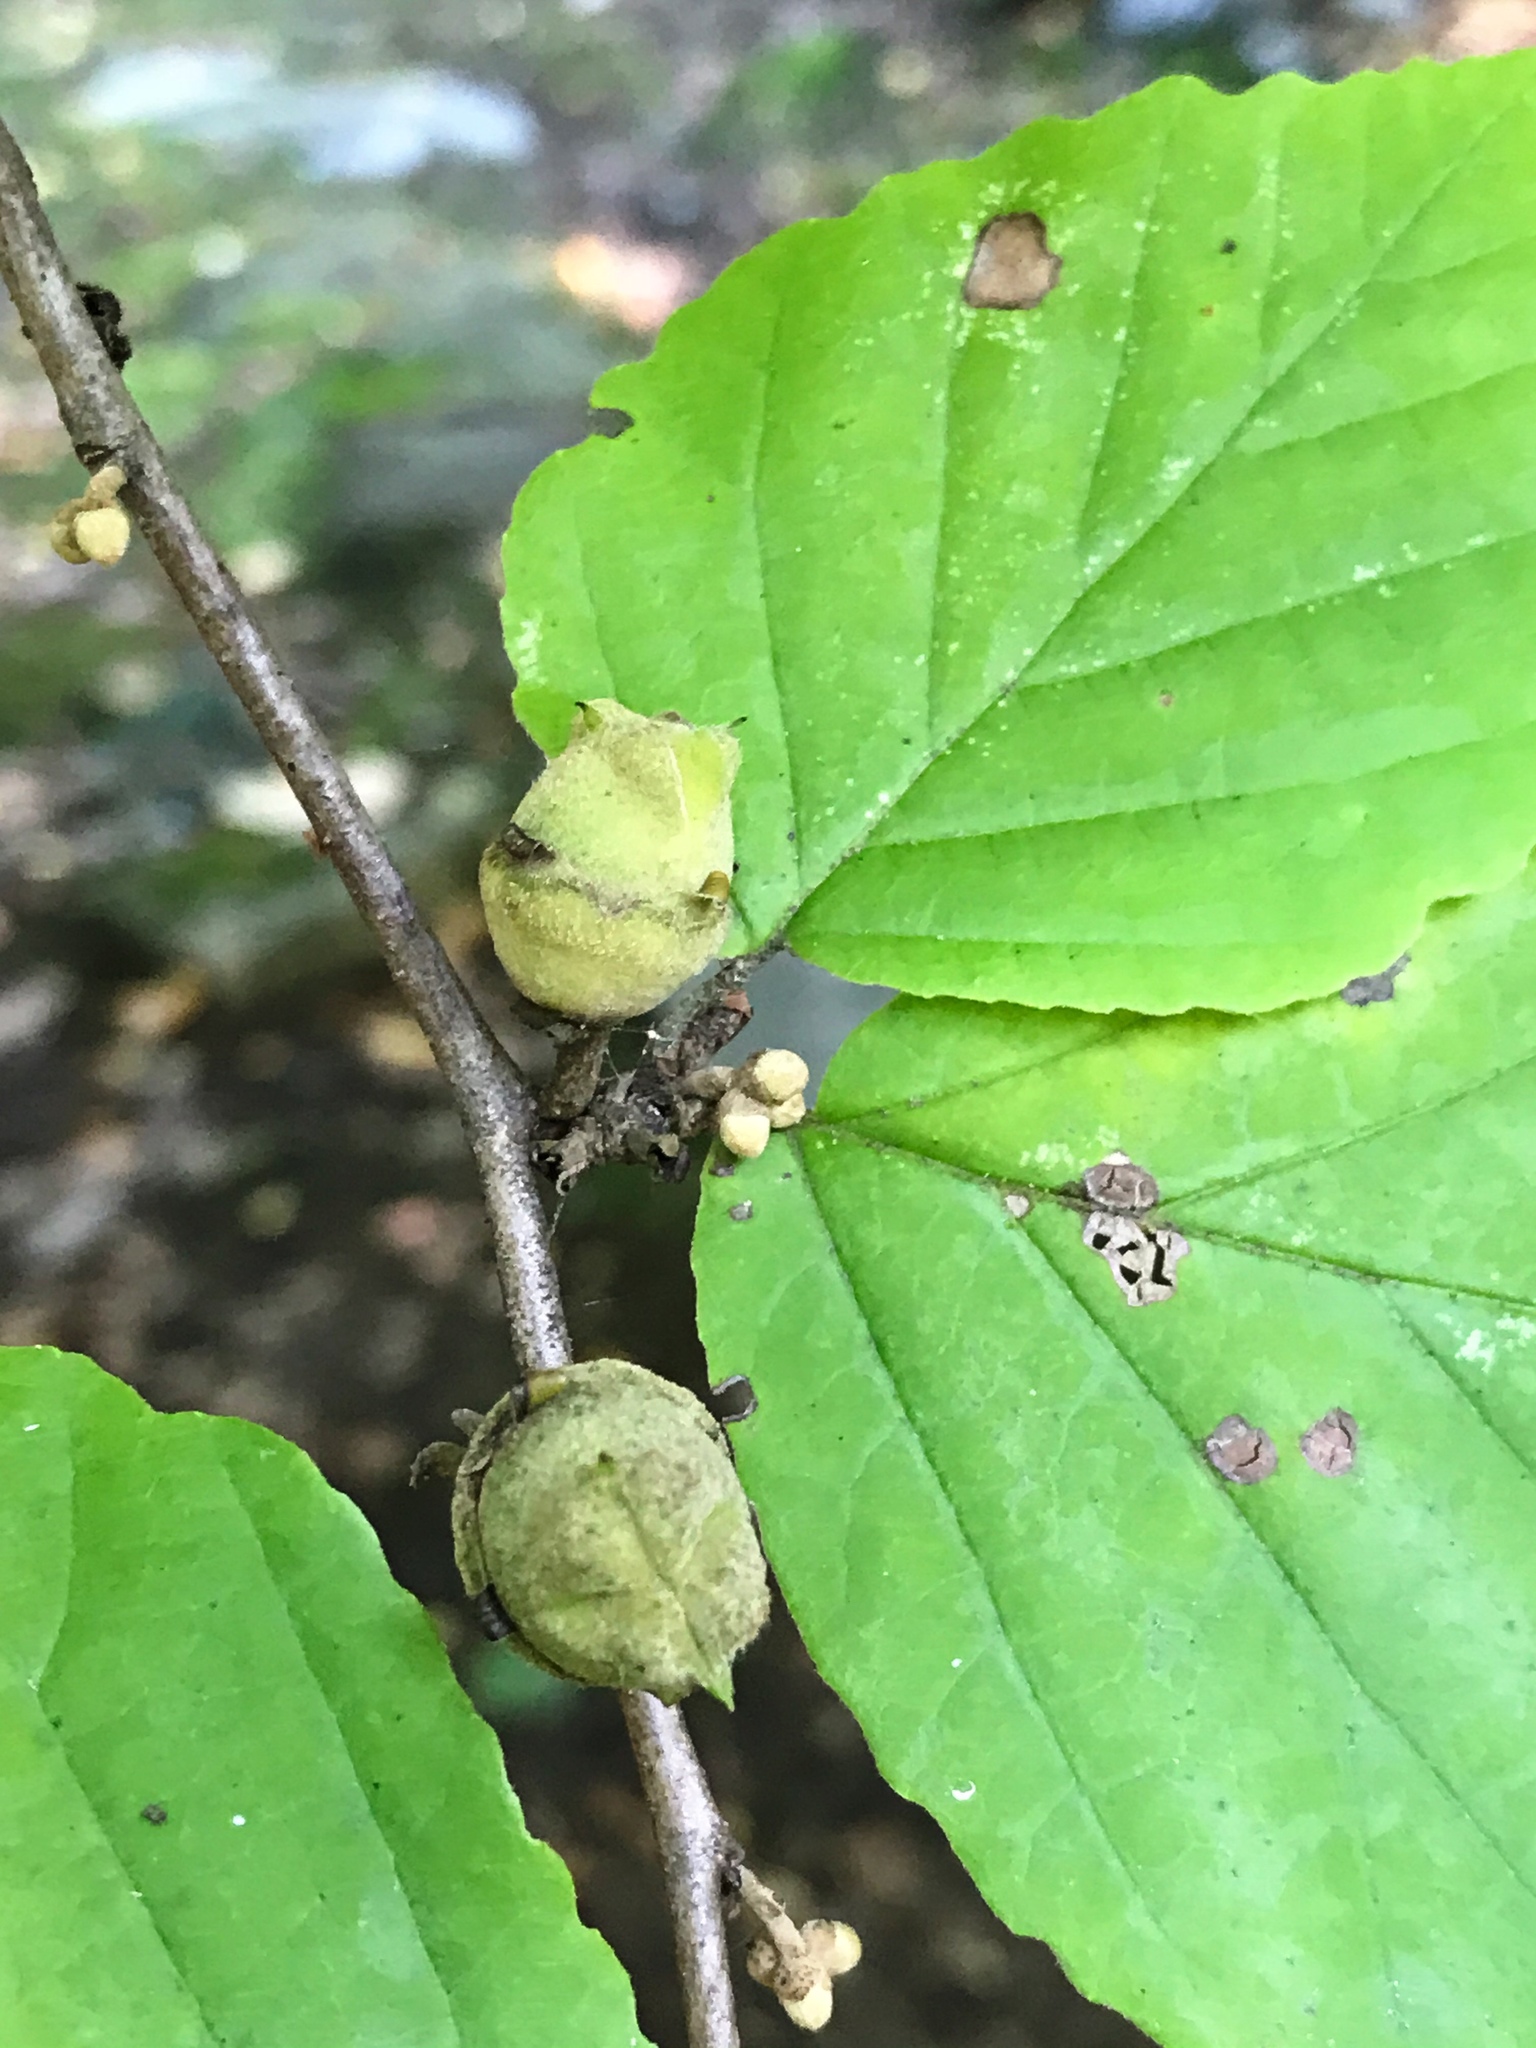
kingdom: Plantae
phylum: Tracheophyta
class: Magnoliopsida
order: Saxifragales
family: Hamamelidaceae
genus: Hamamelis
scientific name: Hamamelis virginiana
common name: Witch-hazel
